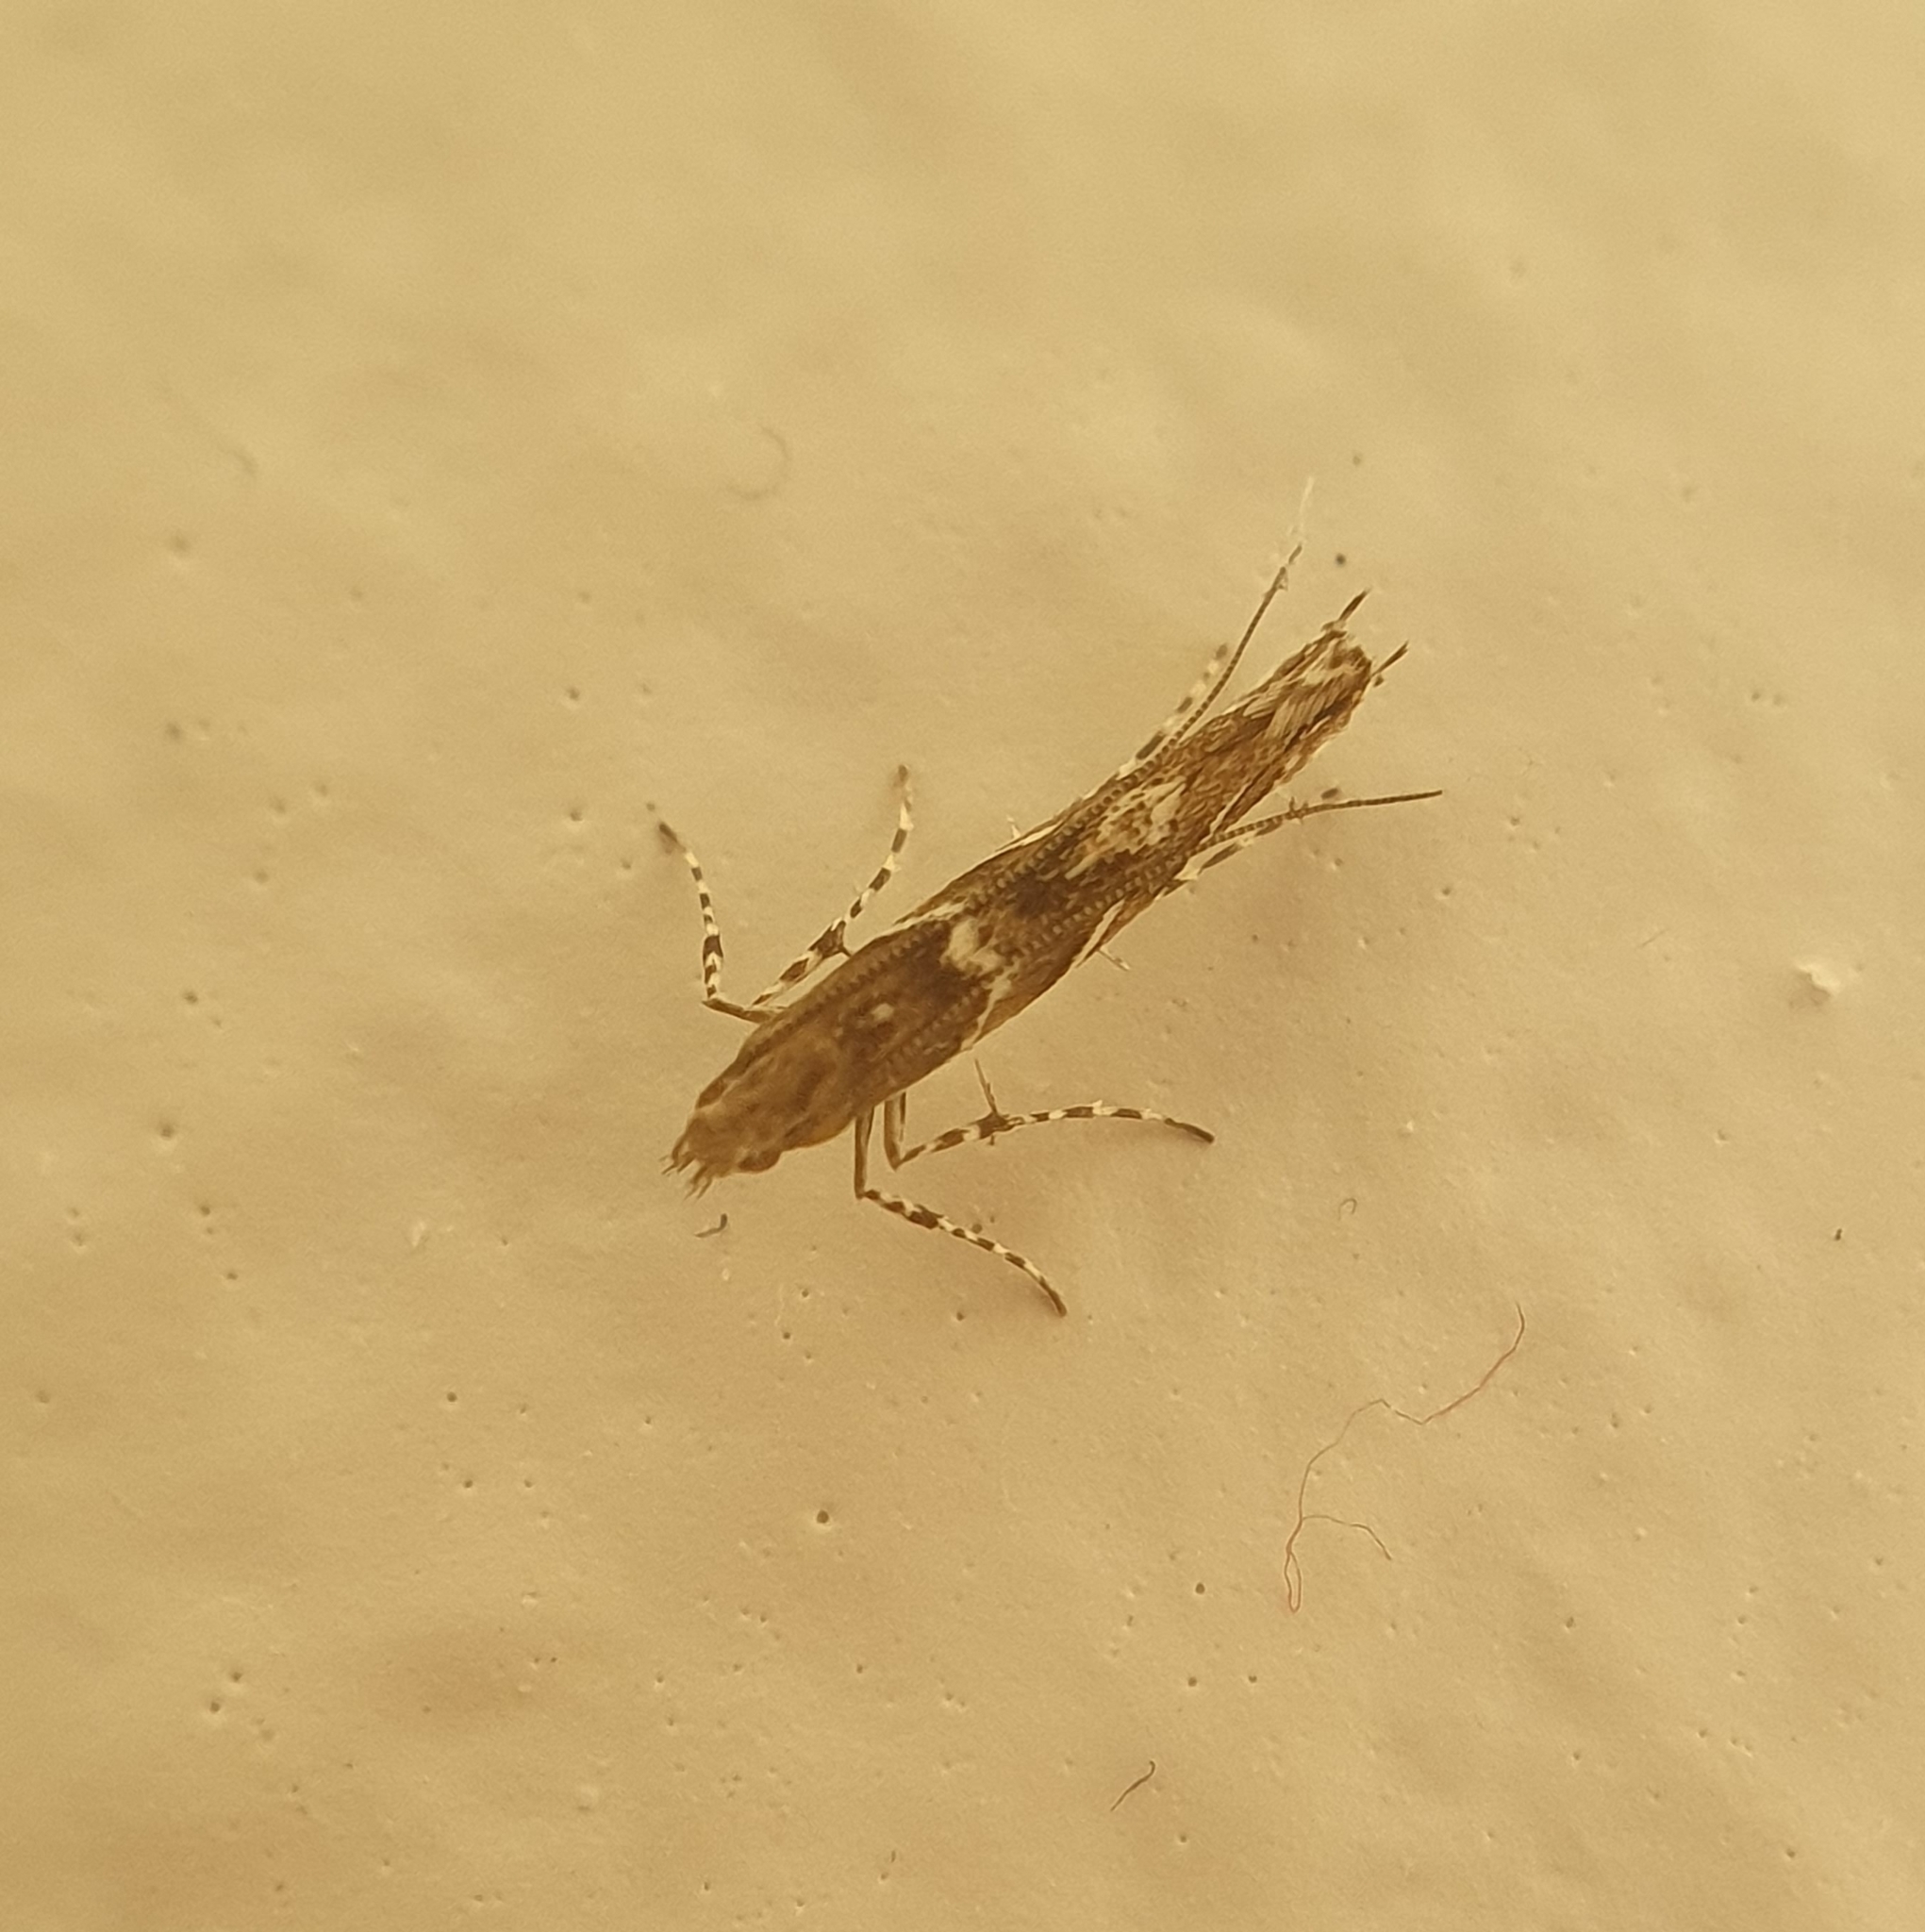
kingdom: Animalia
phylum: Arthropoda
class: Insecta
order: Lepidoptera
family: Gracillariidae
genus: Acrocercops
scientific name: Acrocercops brongniardella
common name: Brown oak slender
